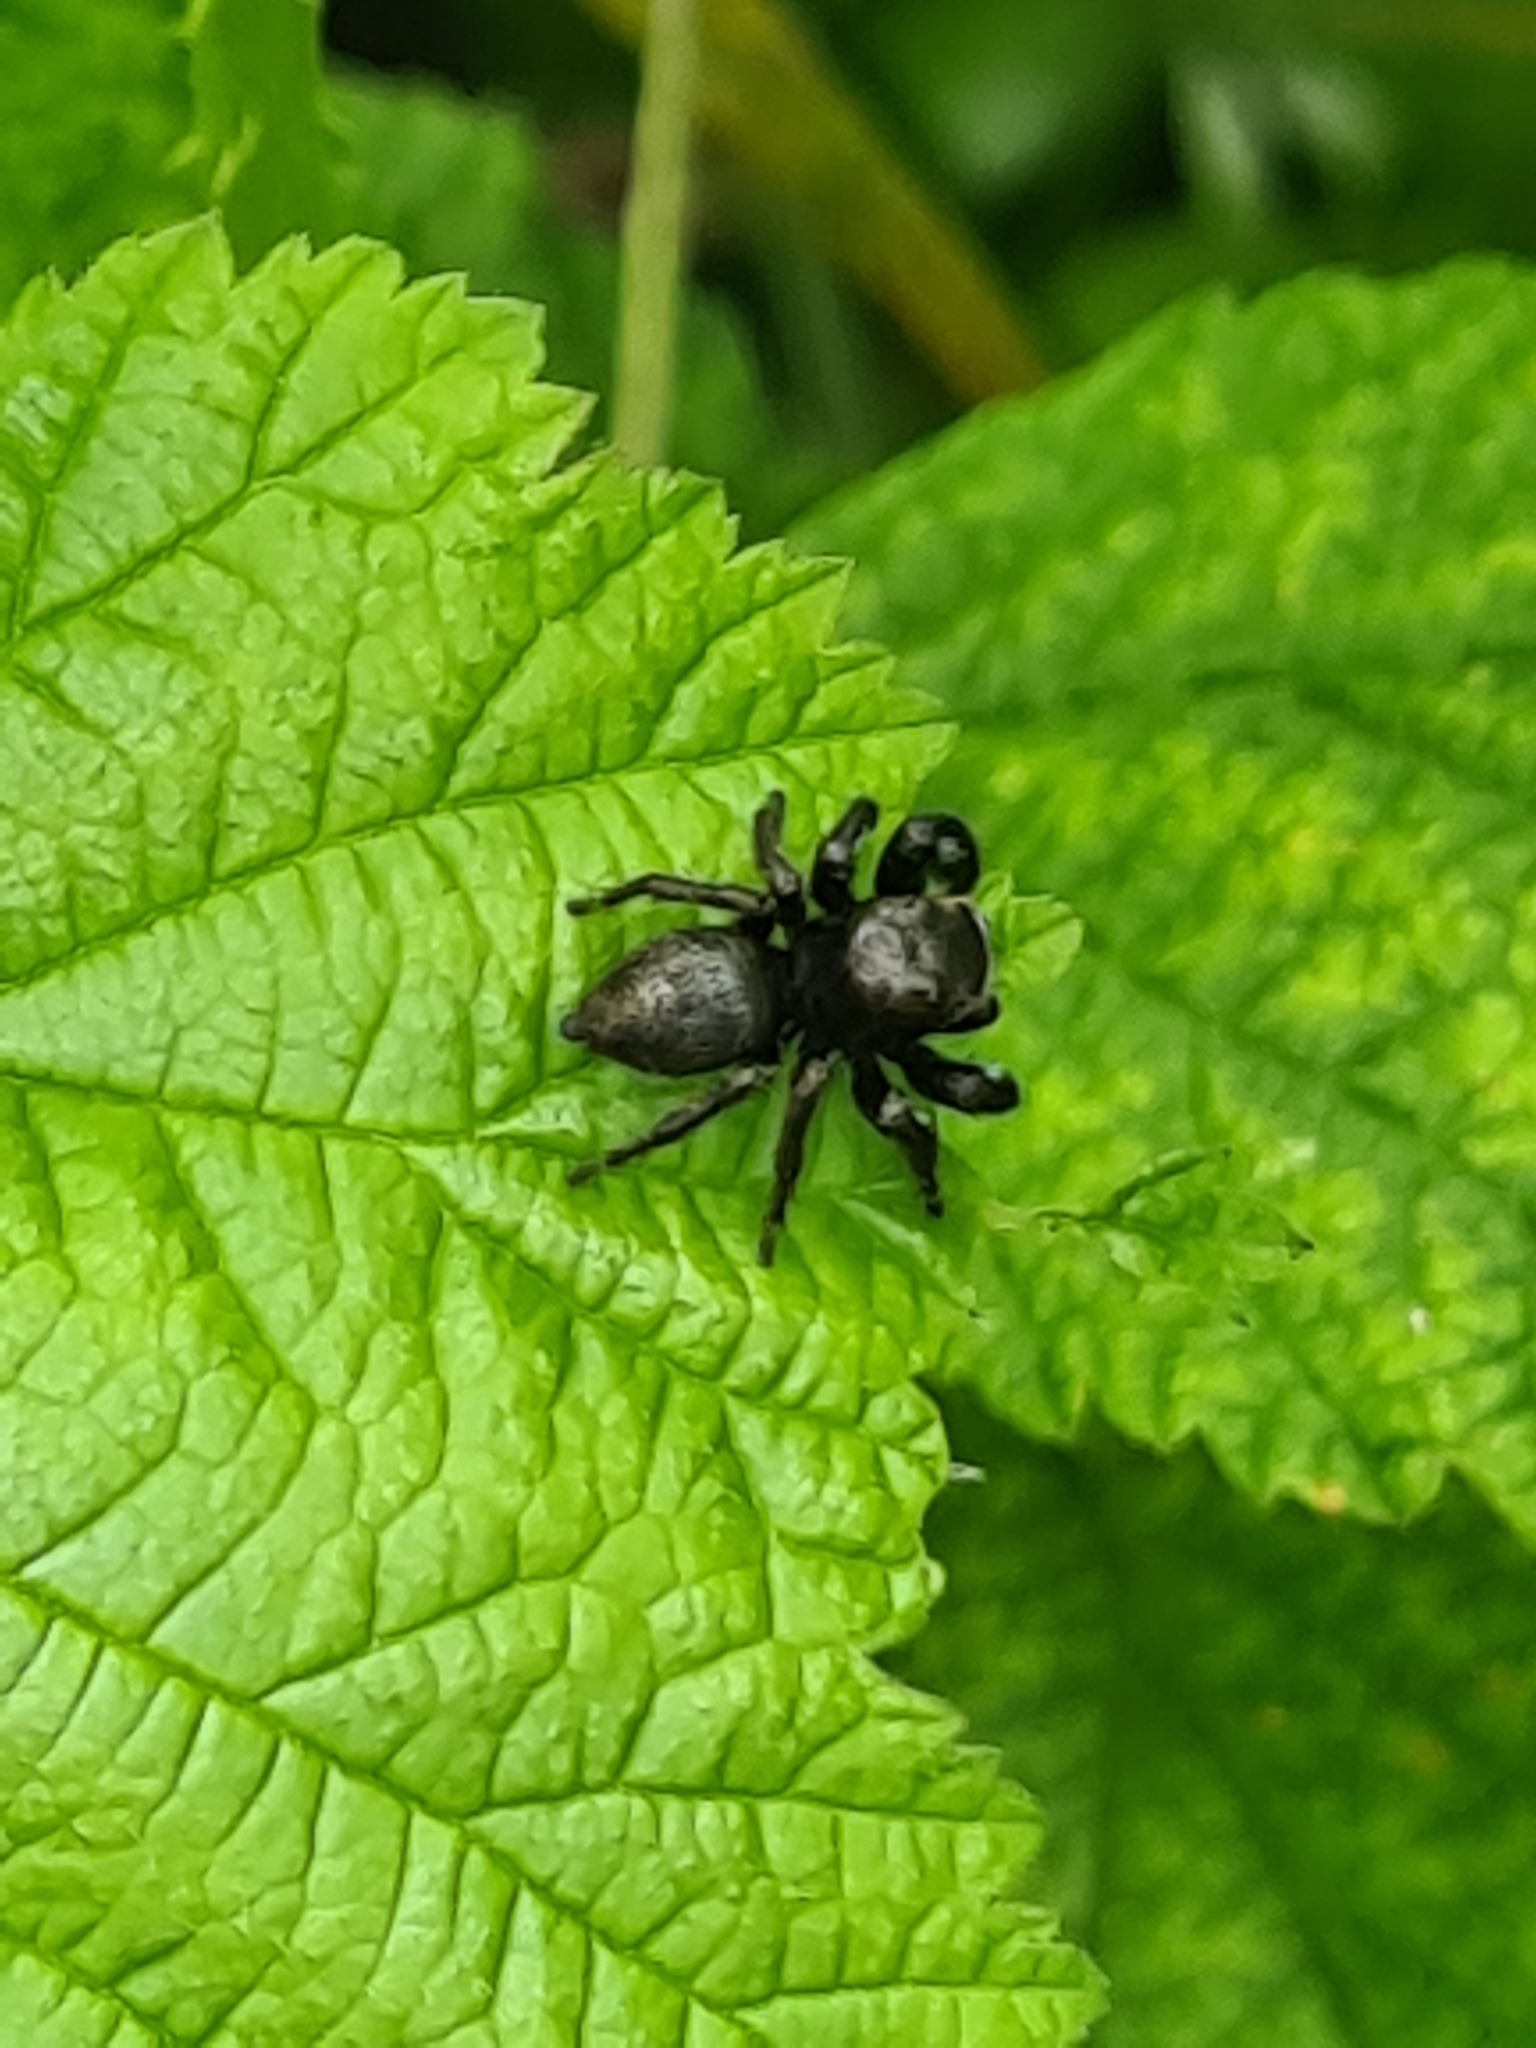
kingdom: Animalia
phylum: Arthropoda
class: Arachnida
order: Araneae
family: Salticidae
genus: Evarcha
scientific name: Evarcha arcuata
